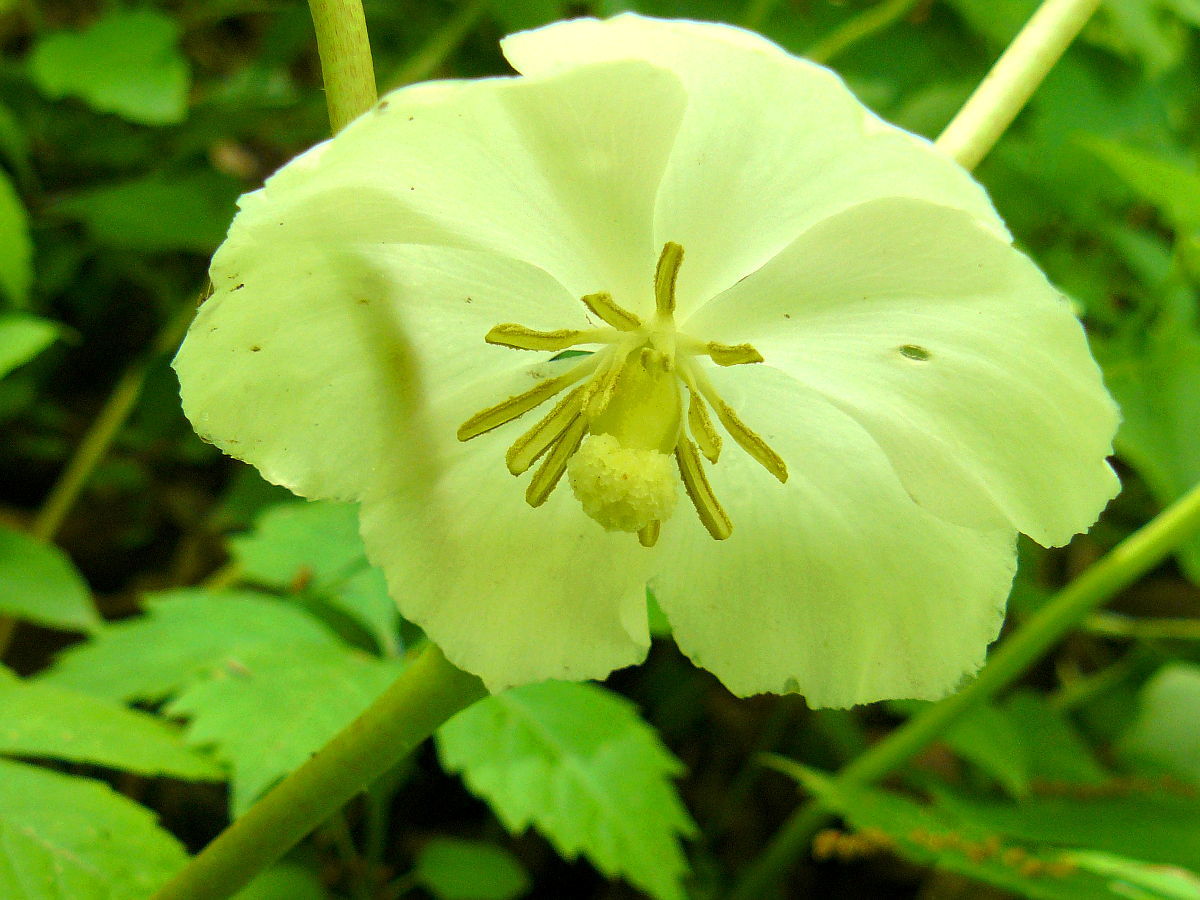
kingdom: Plantae
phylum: Tracheophyta
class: Magnoliopsida
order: Ranunculales
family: Berberidaceae
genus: Podophyllum
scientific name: Podophyllum peltatum
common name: Wild mandrake
